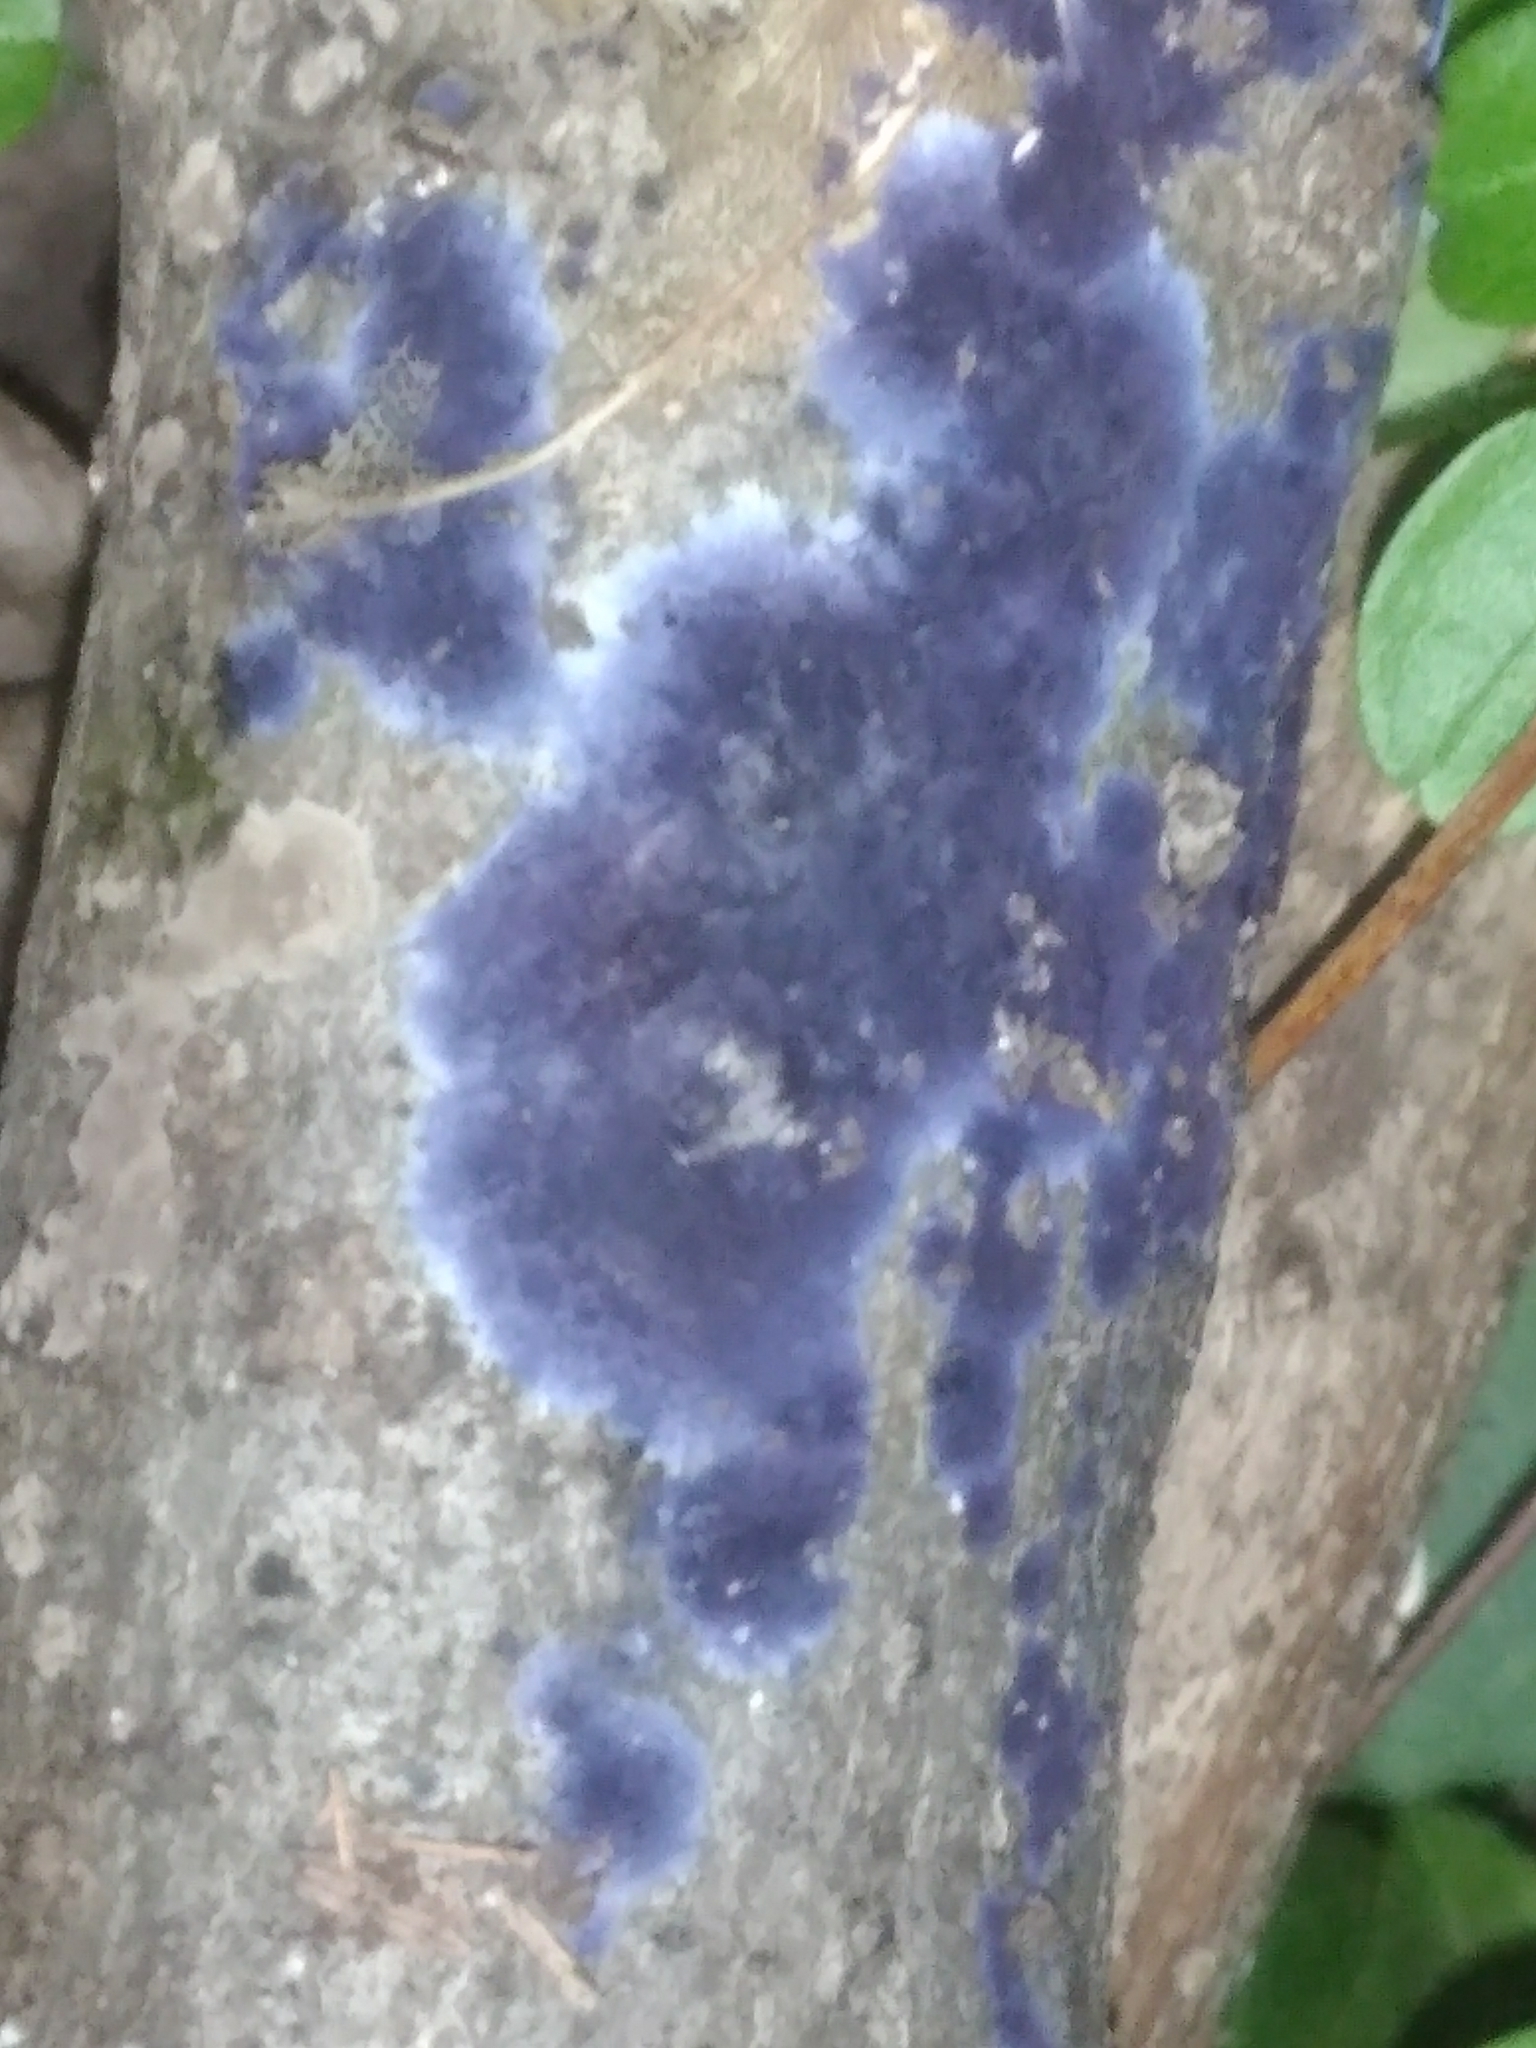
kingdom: Fungi
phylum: Basidiomycota
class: Agaricomycetes
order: Polyporales
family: Phanerochaetaceae
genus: Terana
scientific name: Terana coerulea
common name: Cobalt crust
